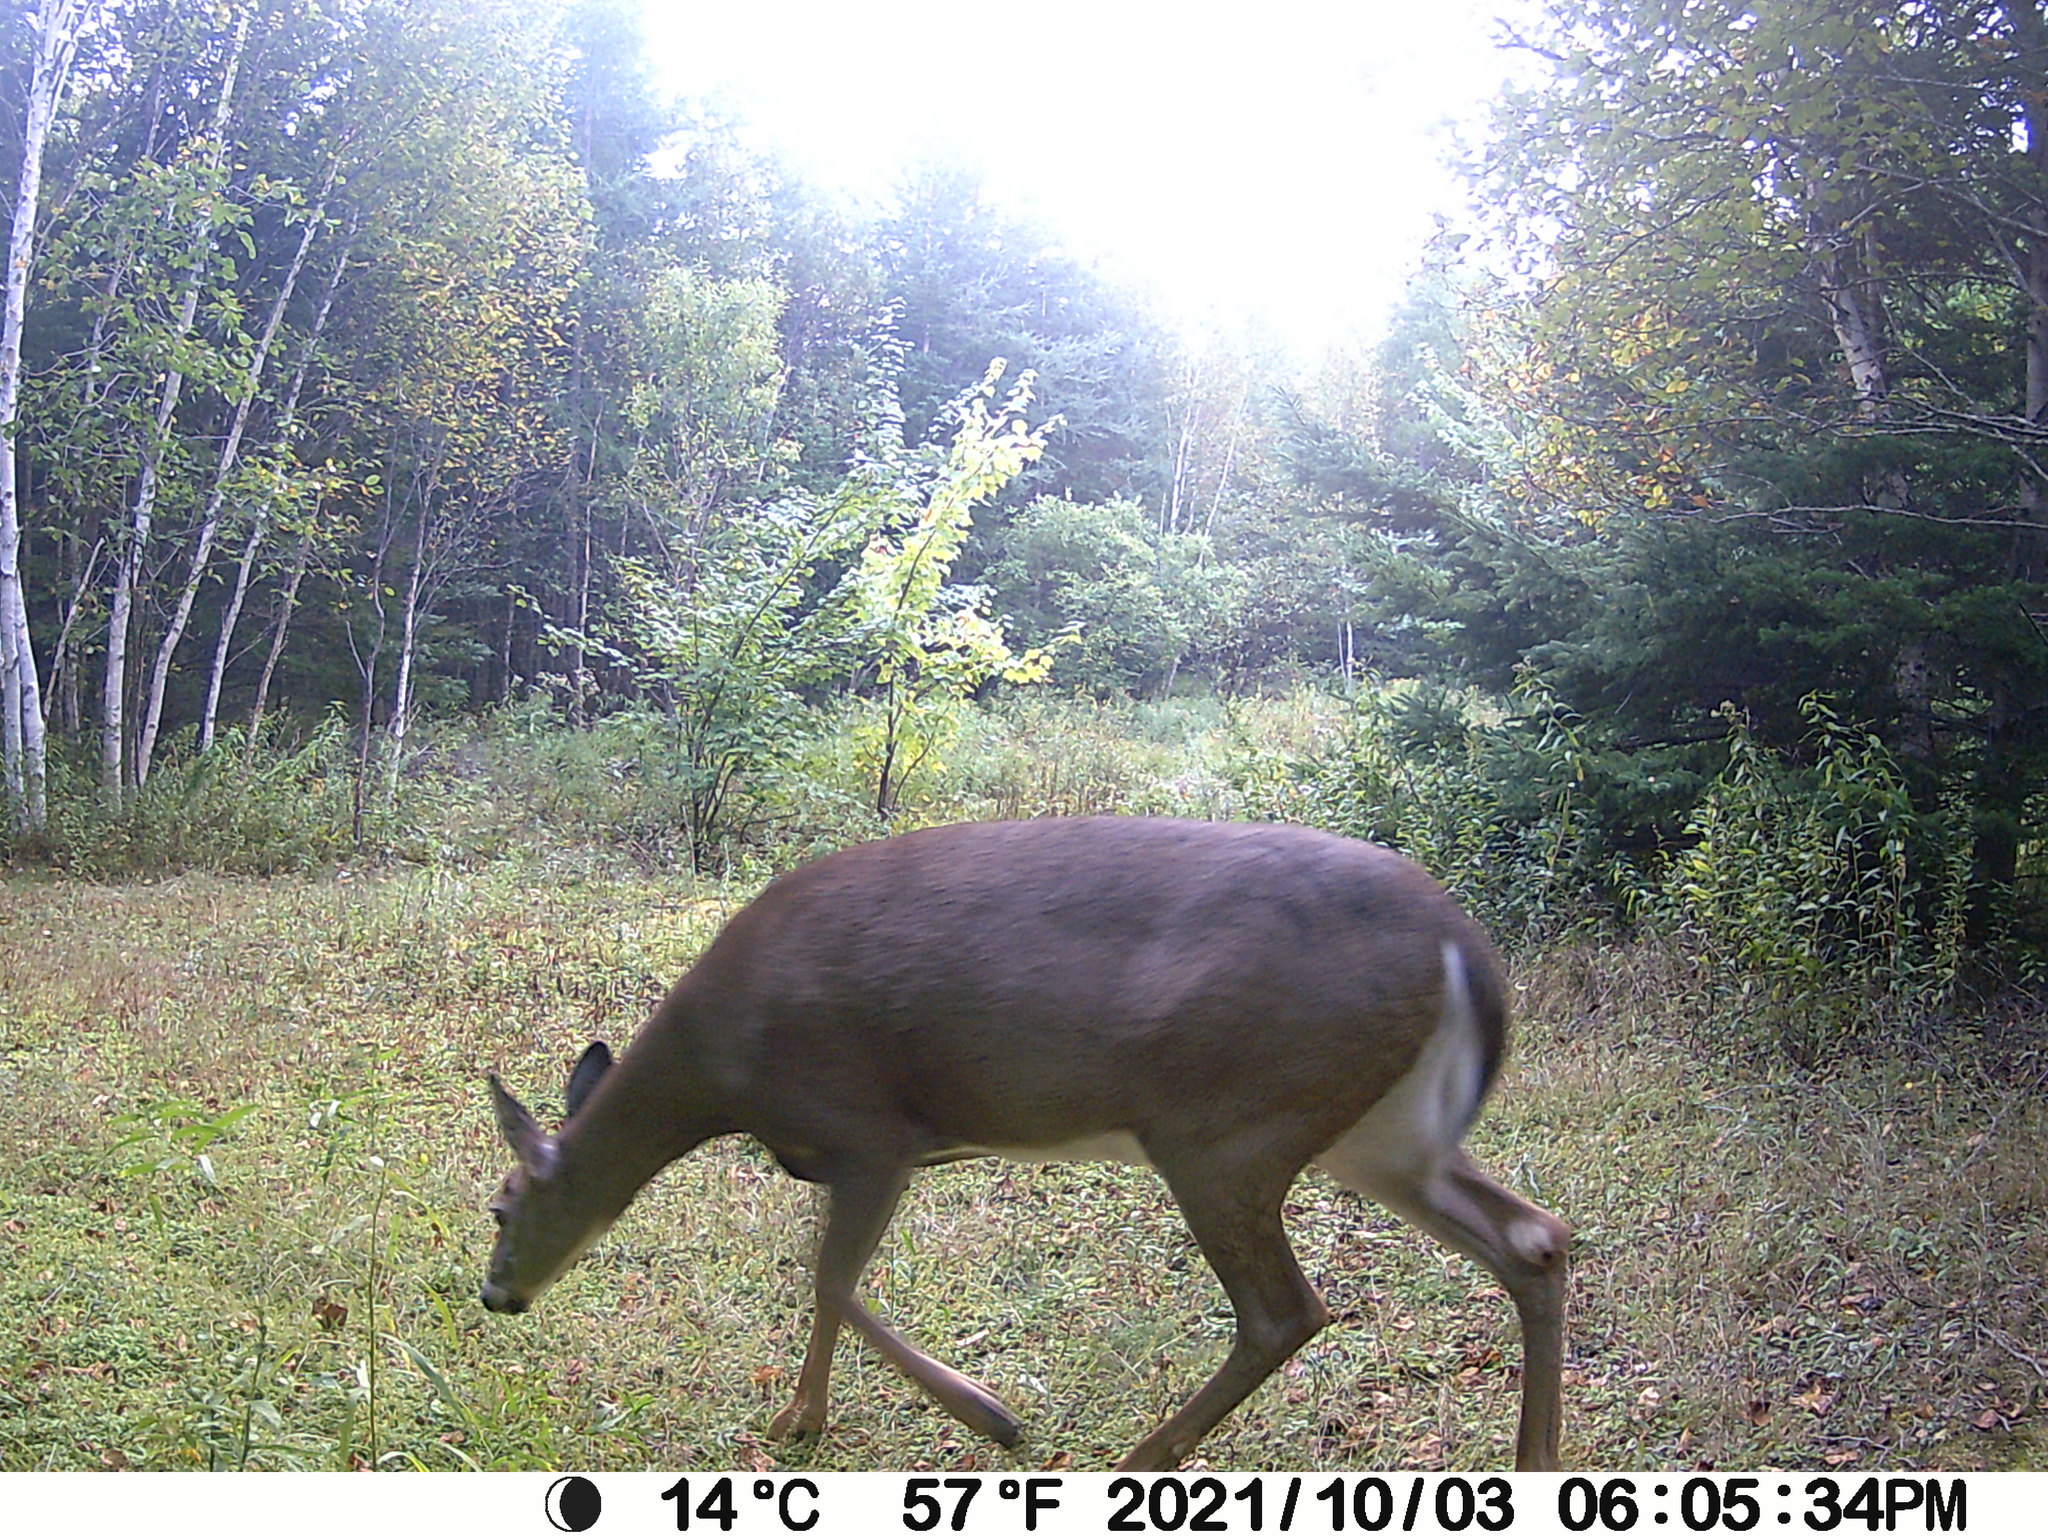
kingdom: Animalia
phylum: Chordata
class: Mammalia
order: Artiodactyla
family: Cervidae
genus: Odocoileus
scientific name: Odocoileus virginianus
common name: White-tailed deer
